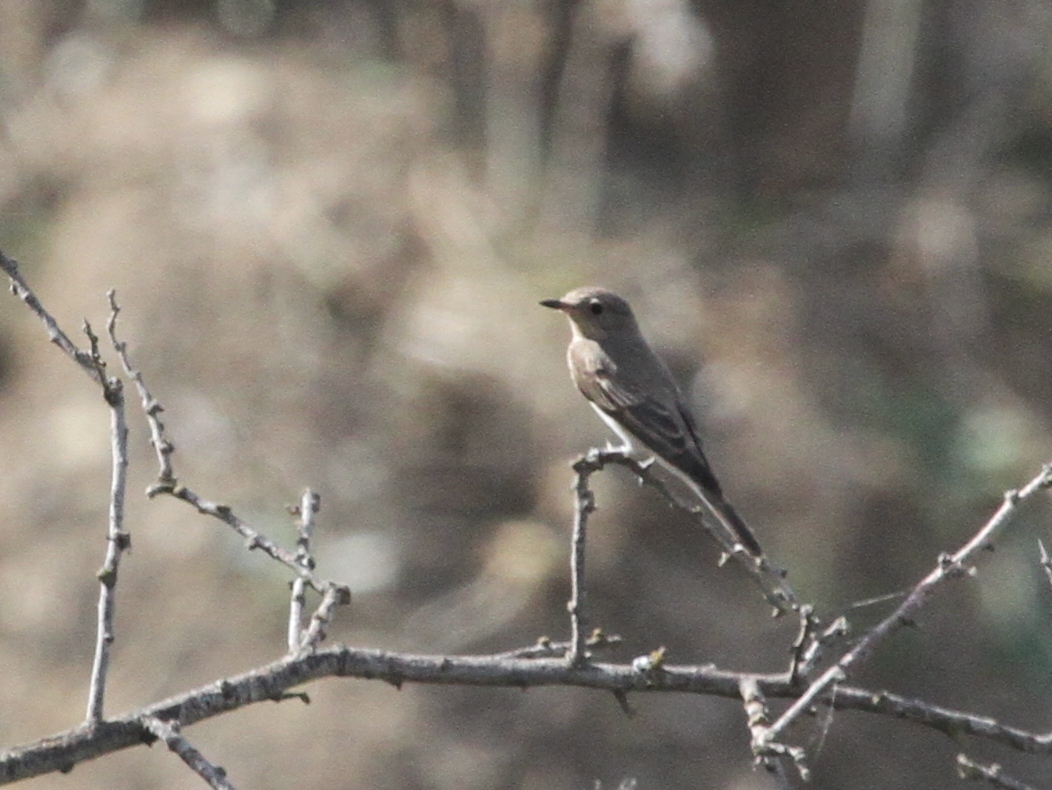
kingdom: Animalia
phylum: Chordata
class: Aves
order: Passeriformes
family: Muscicapidae
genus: Muscicapa
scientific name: Muscicapa striata
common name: Spotted flycatcher
